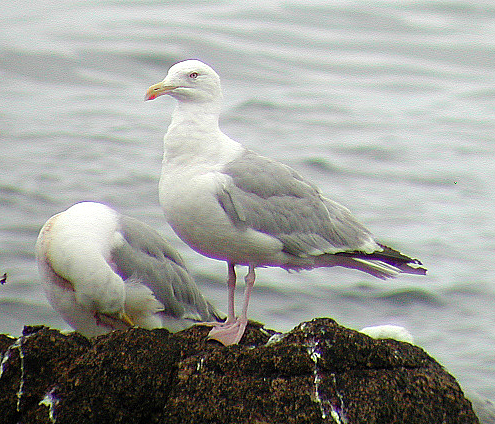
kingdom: Animalia
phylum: Chordata
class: Aves
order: Charadriiformes
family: Laridae
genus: Larus
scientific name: Larus argentatus
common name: Herring gull
